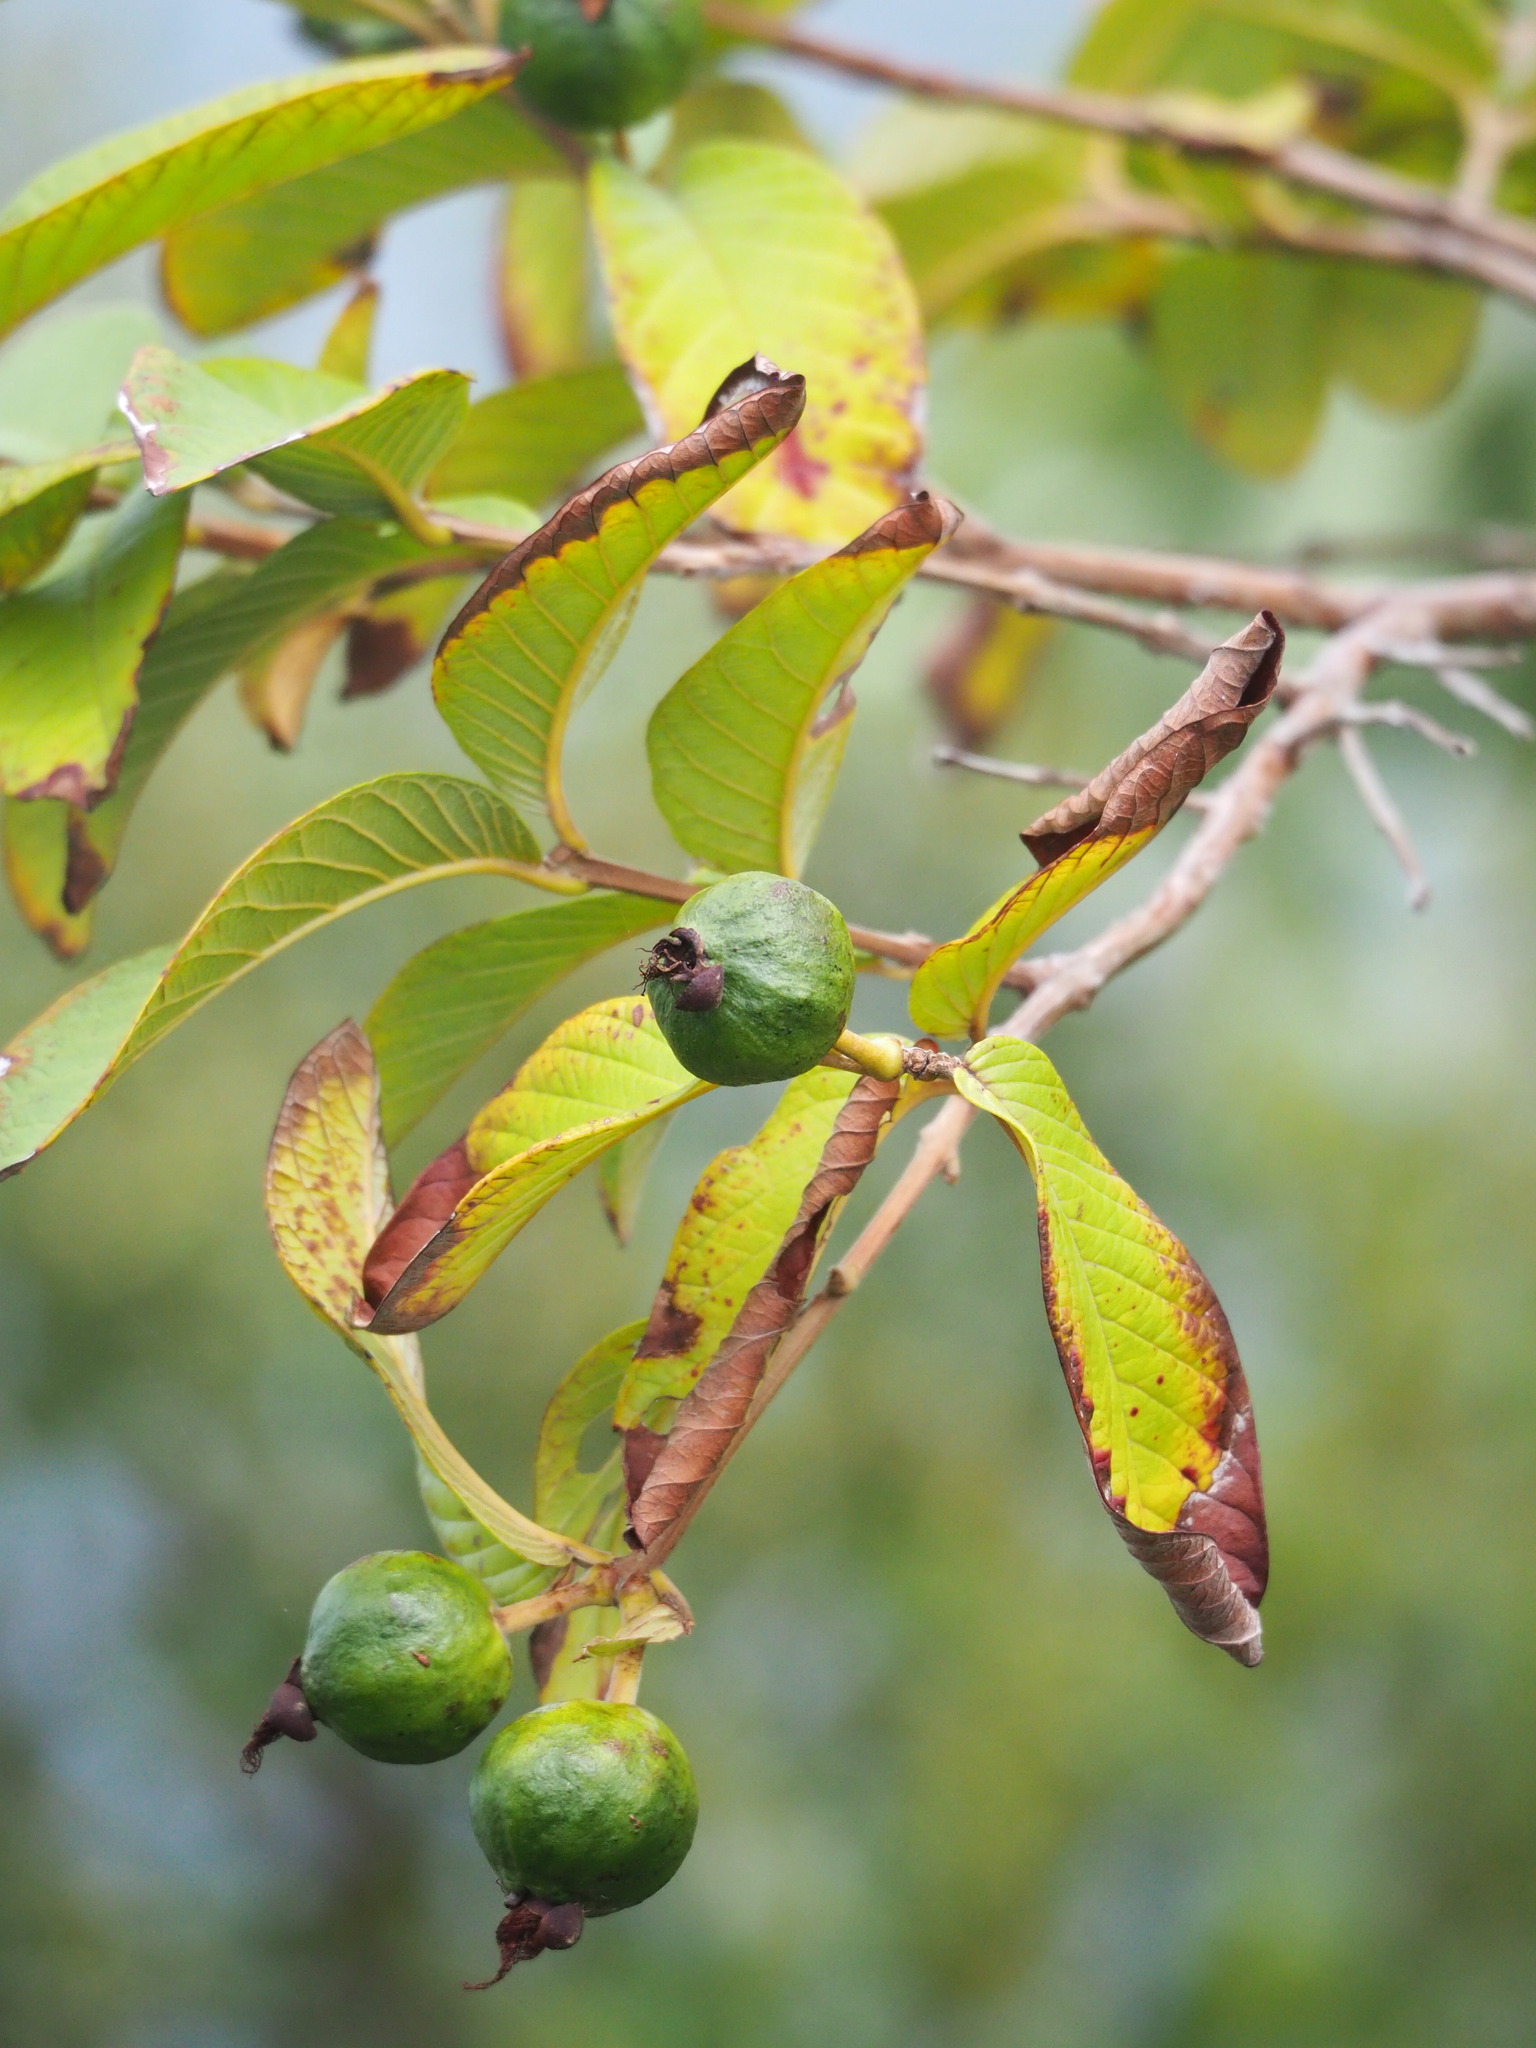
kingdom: Plantae
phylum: Tracheophyta
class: Magnoliopsida
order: Myrtales
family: Myrtaceae
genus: Psidium
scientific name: Psidium guajava
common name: Guava
